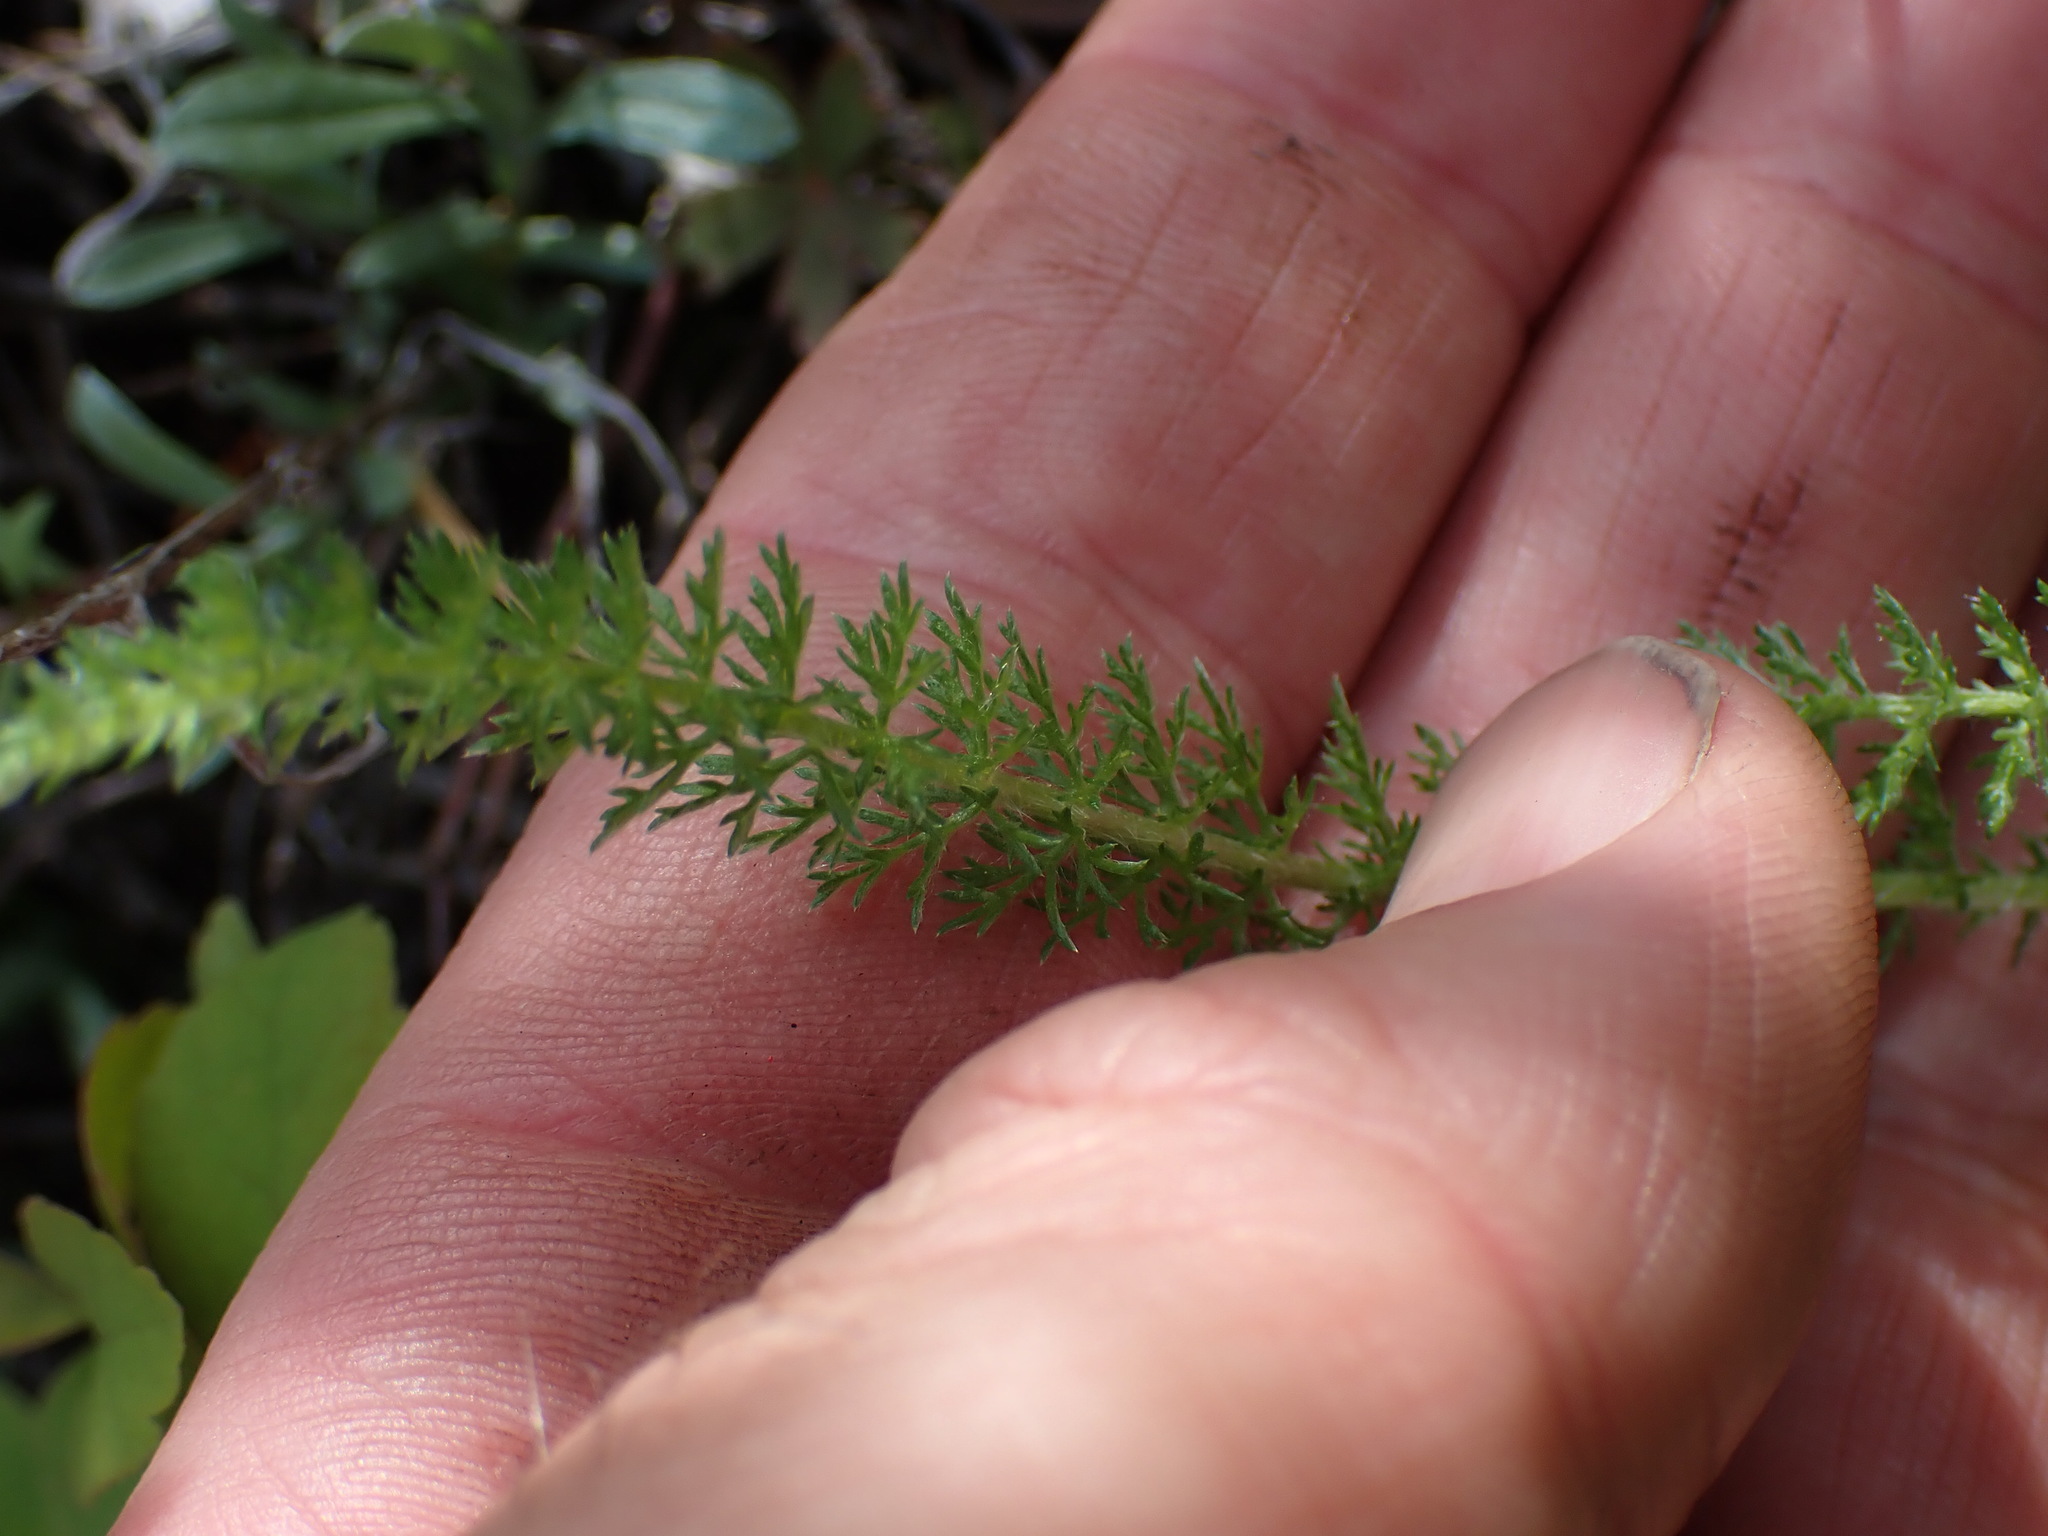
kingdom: Plantae
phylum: Tracheophyta
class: Magnoliopsida
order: Asterales
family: Asteraceae
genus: Achillea
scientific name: Achillea millefolium
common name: Yarrow
